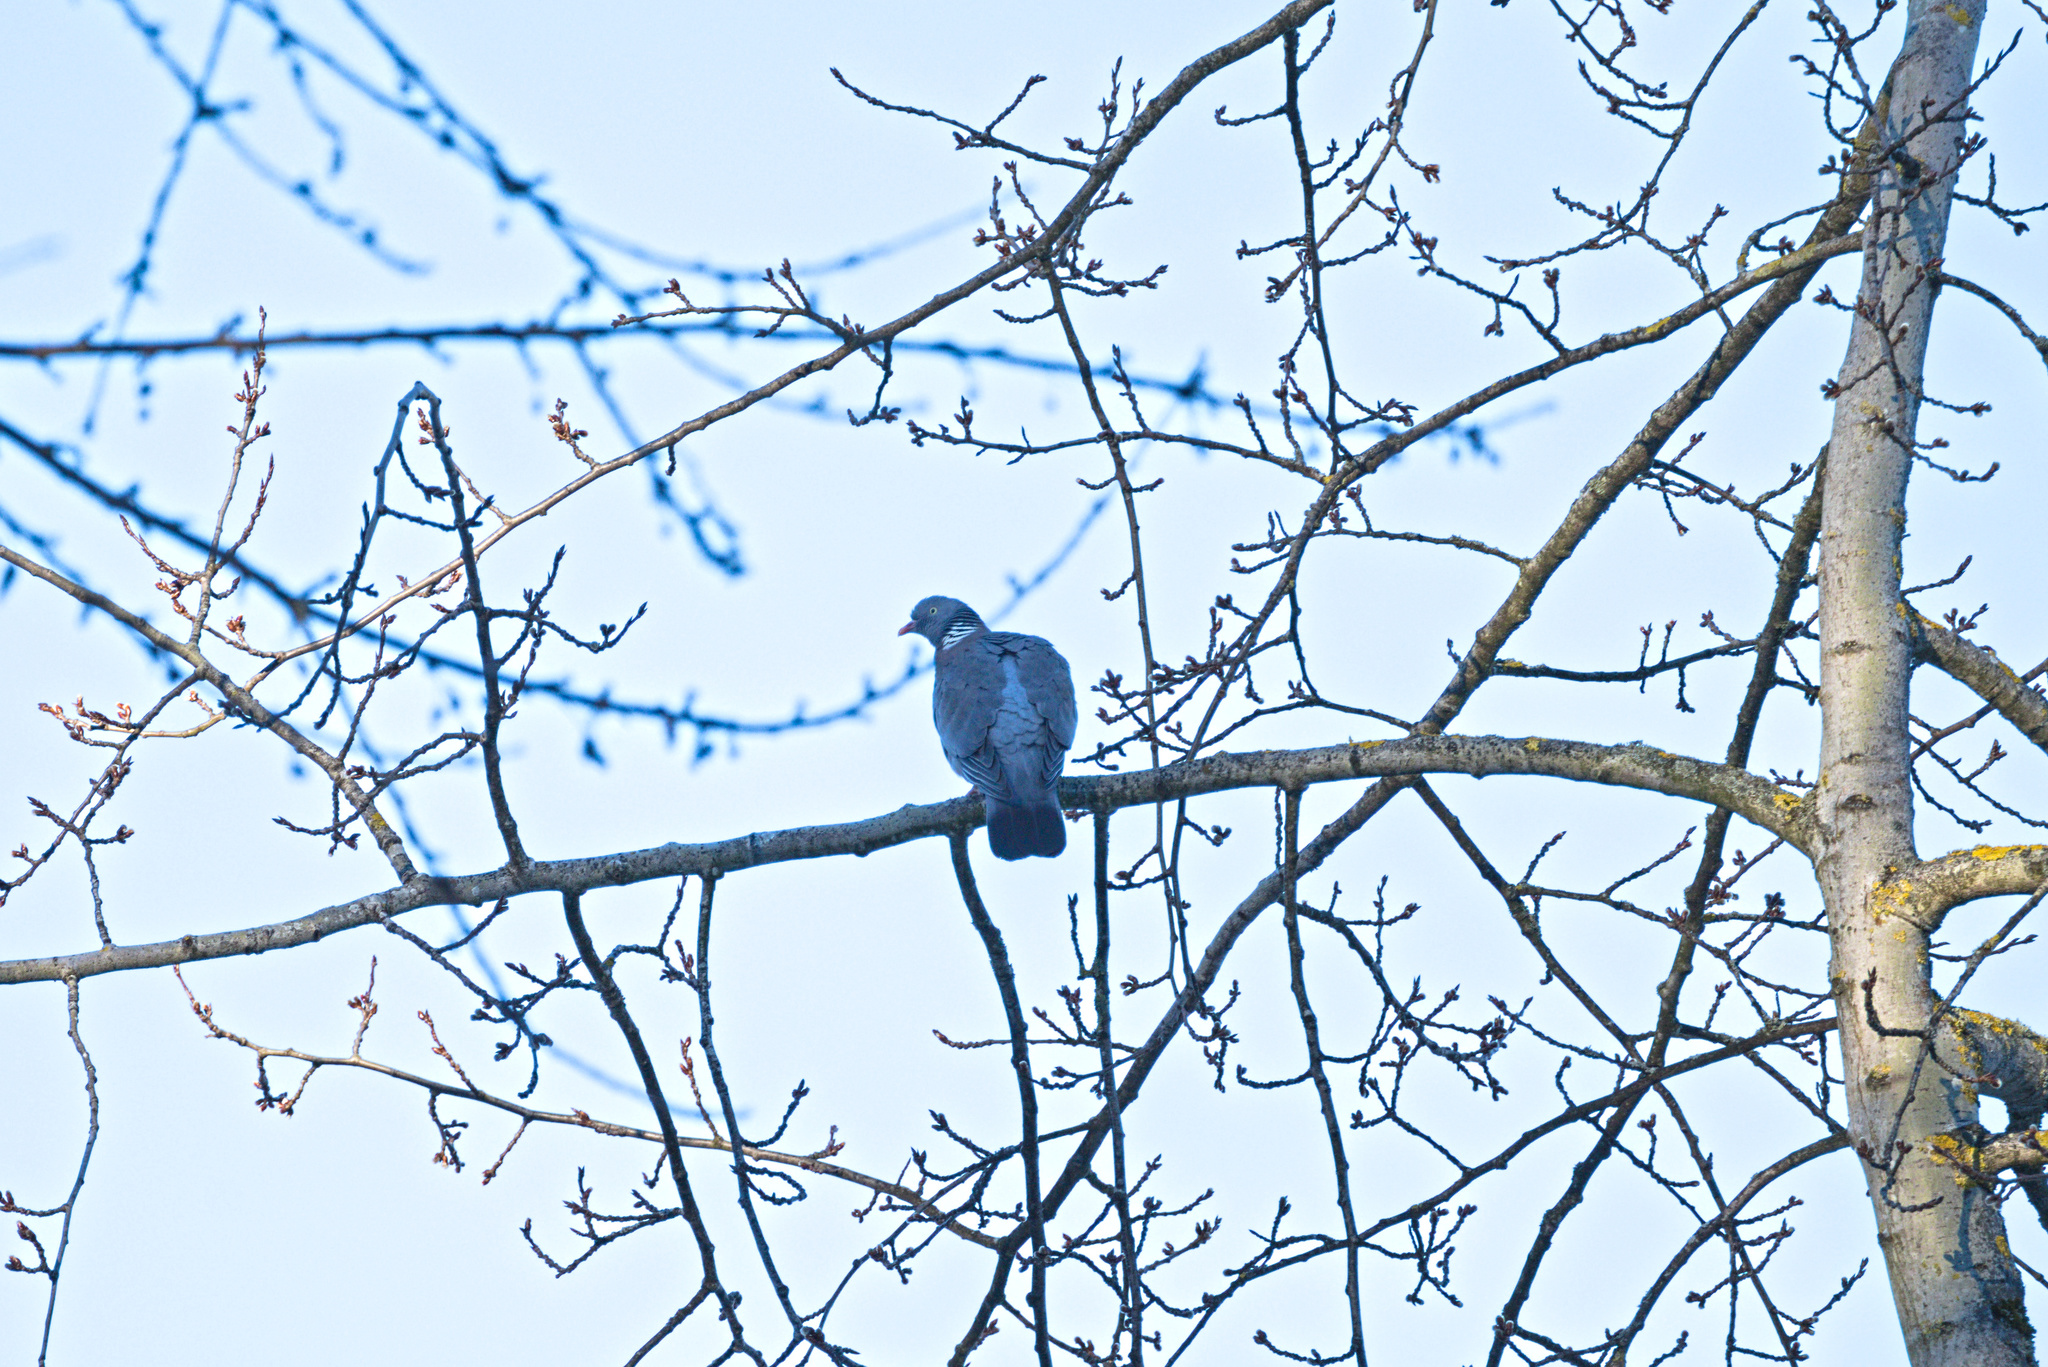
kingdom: Animalia
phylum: Chordata
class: Aves
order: Columbiformes
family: Columbidae
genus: Columba
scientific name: Columba palumbus
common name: Common wood pigeon
